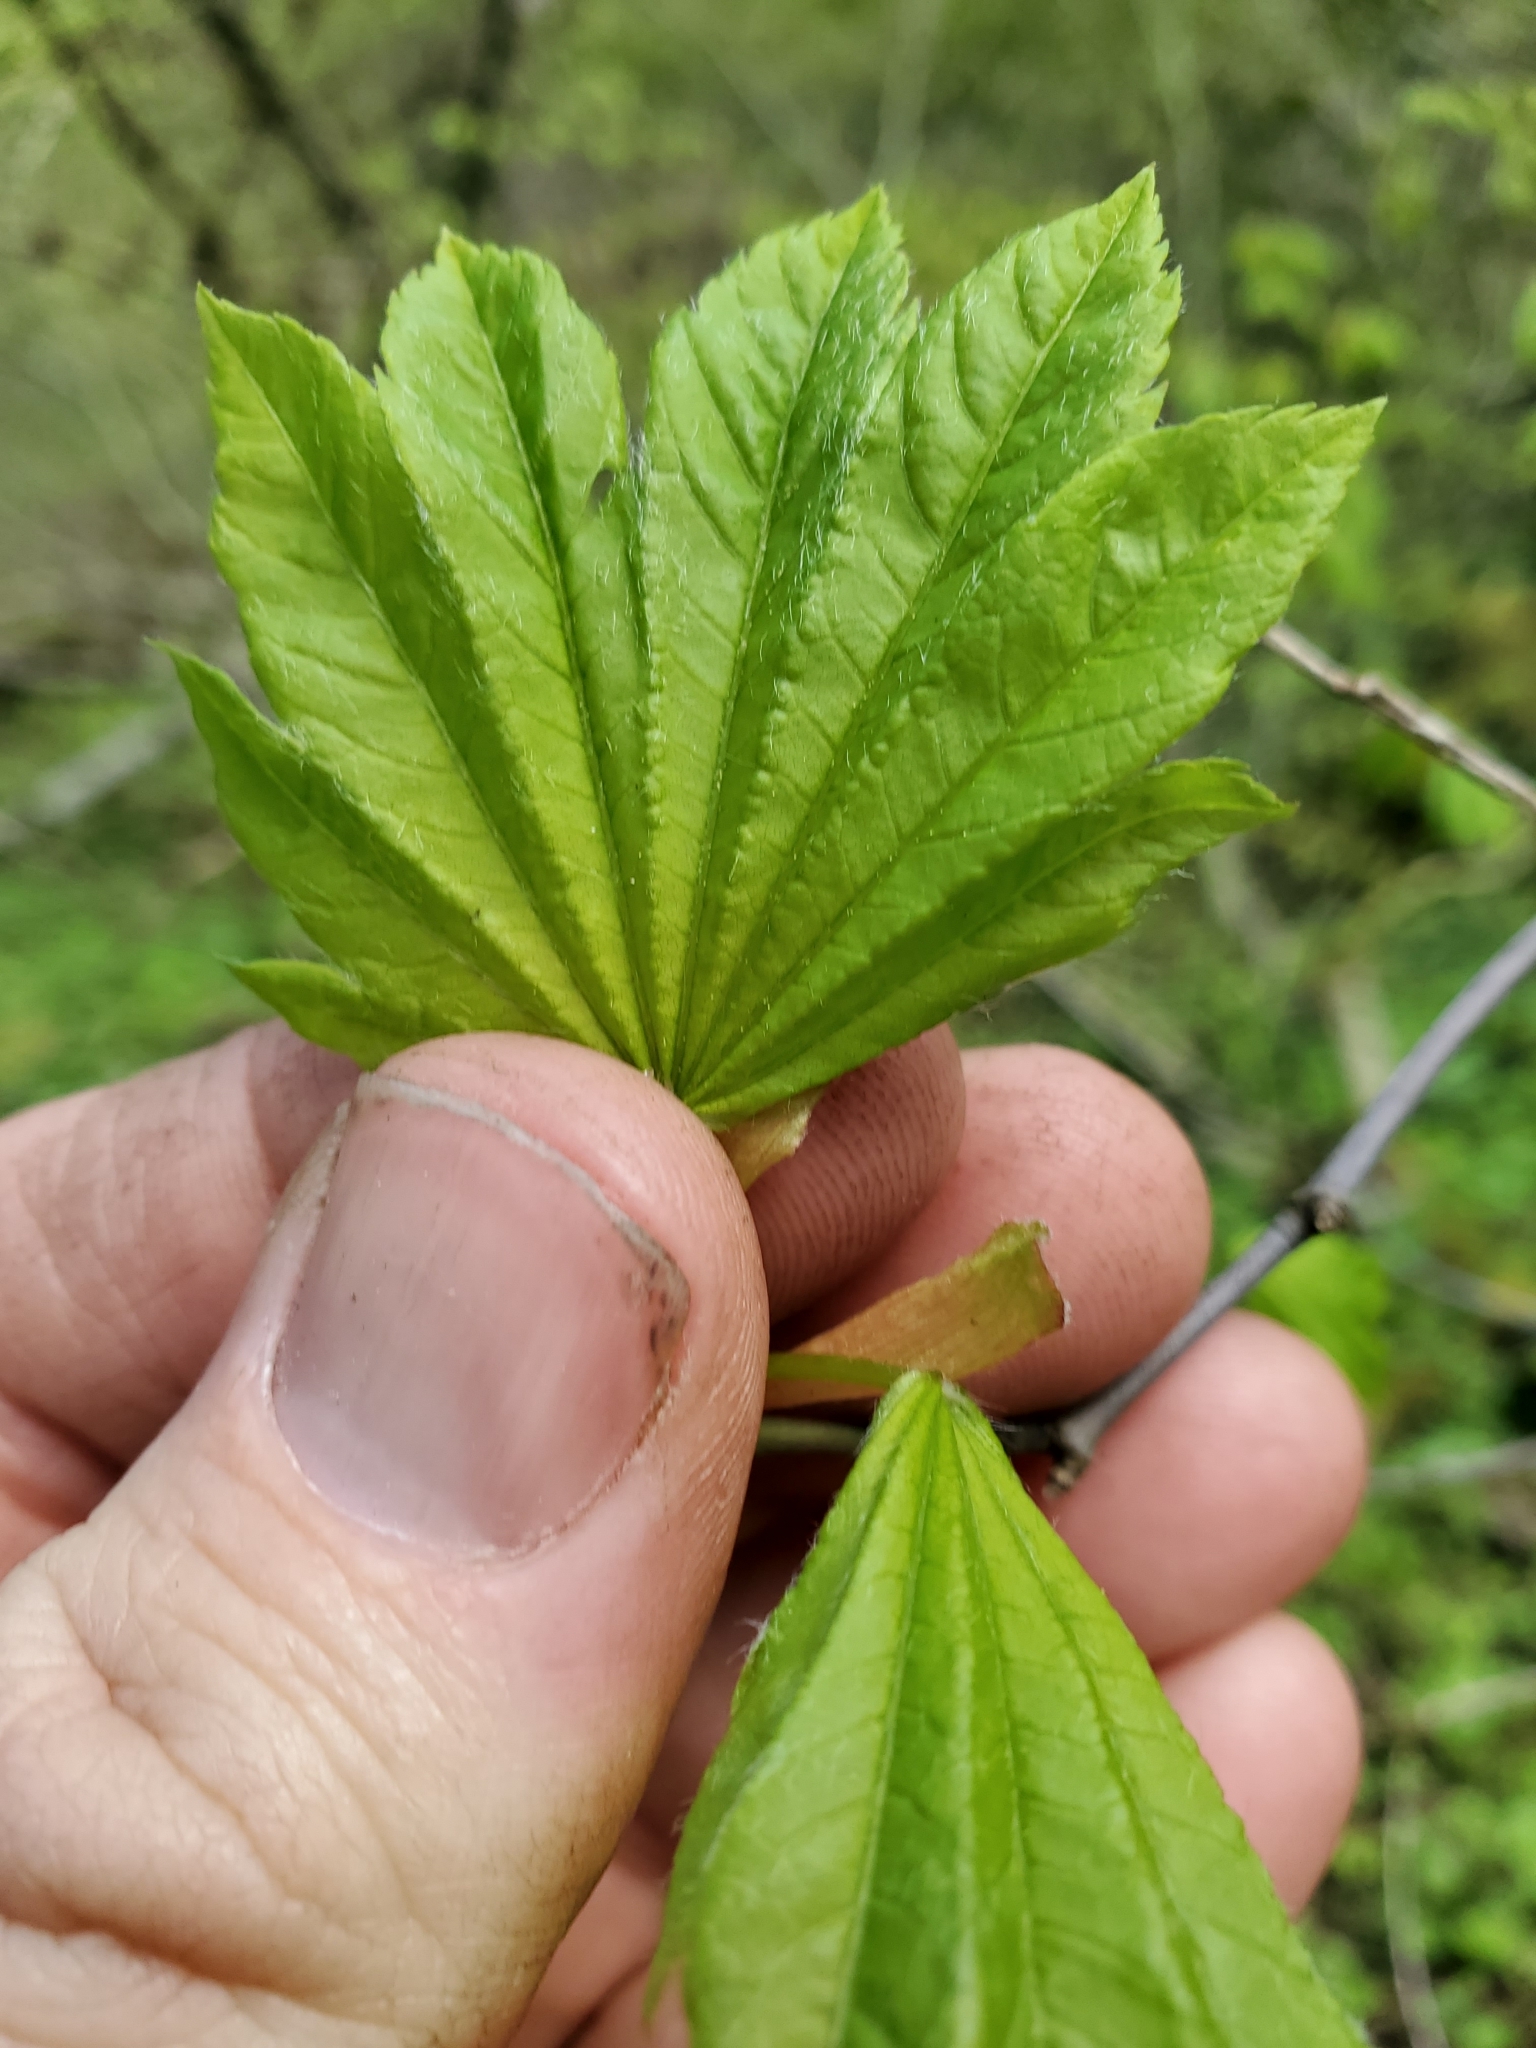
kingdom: Plantae
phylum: Tracheophyta
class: Magnoliopsida
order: Sapindales
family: Sapindaceae
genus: Acer
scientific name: Acer circinatum
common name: Vine maple
